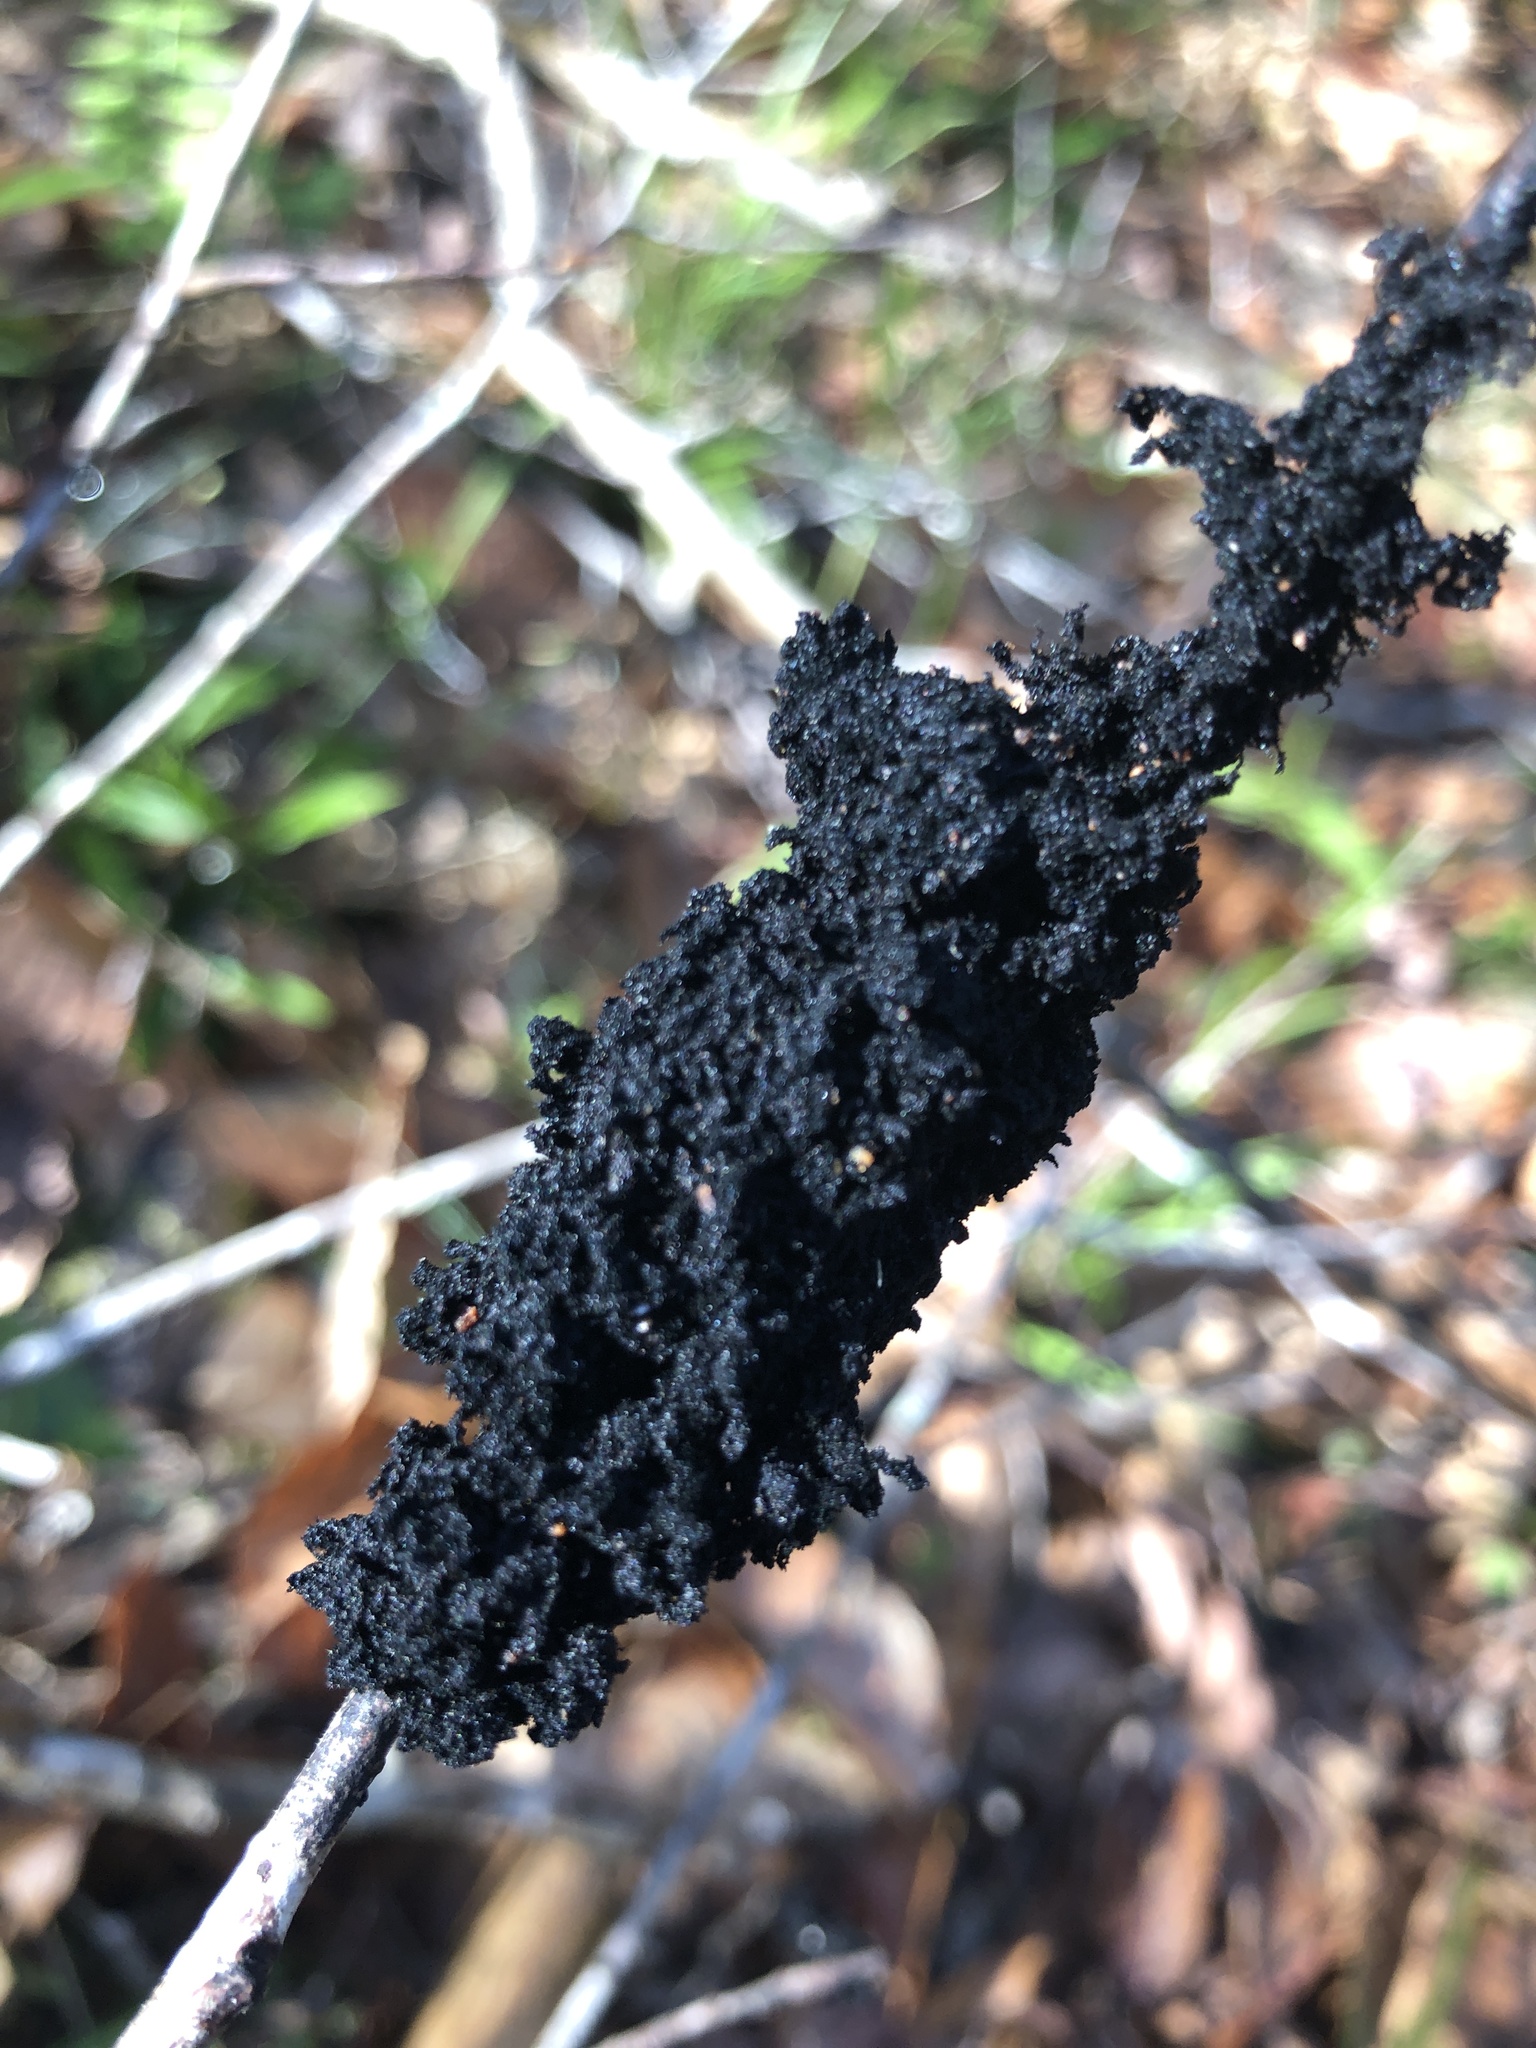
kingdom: Fungi
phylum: Ascomycota
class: Dothideomycetes
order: Capnodiales
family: Capnodiaceae
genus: Scorias
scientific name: Scorias spongiosa
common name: Black sooty mold
